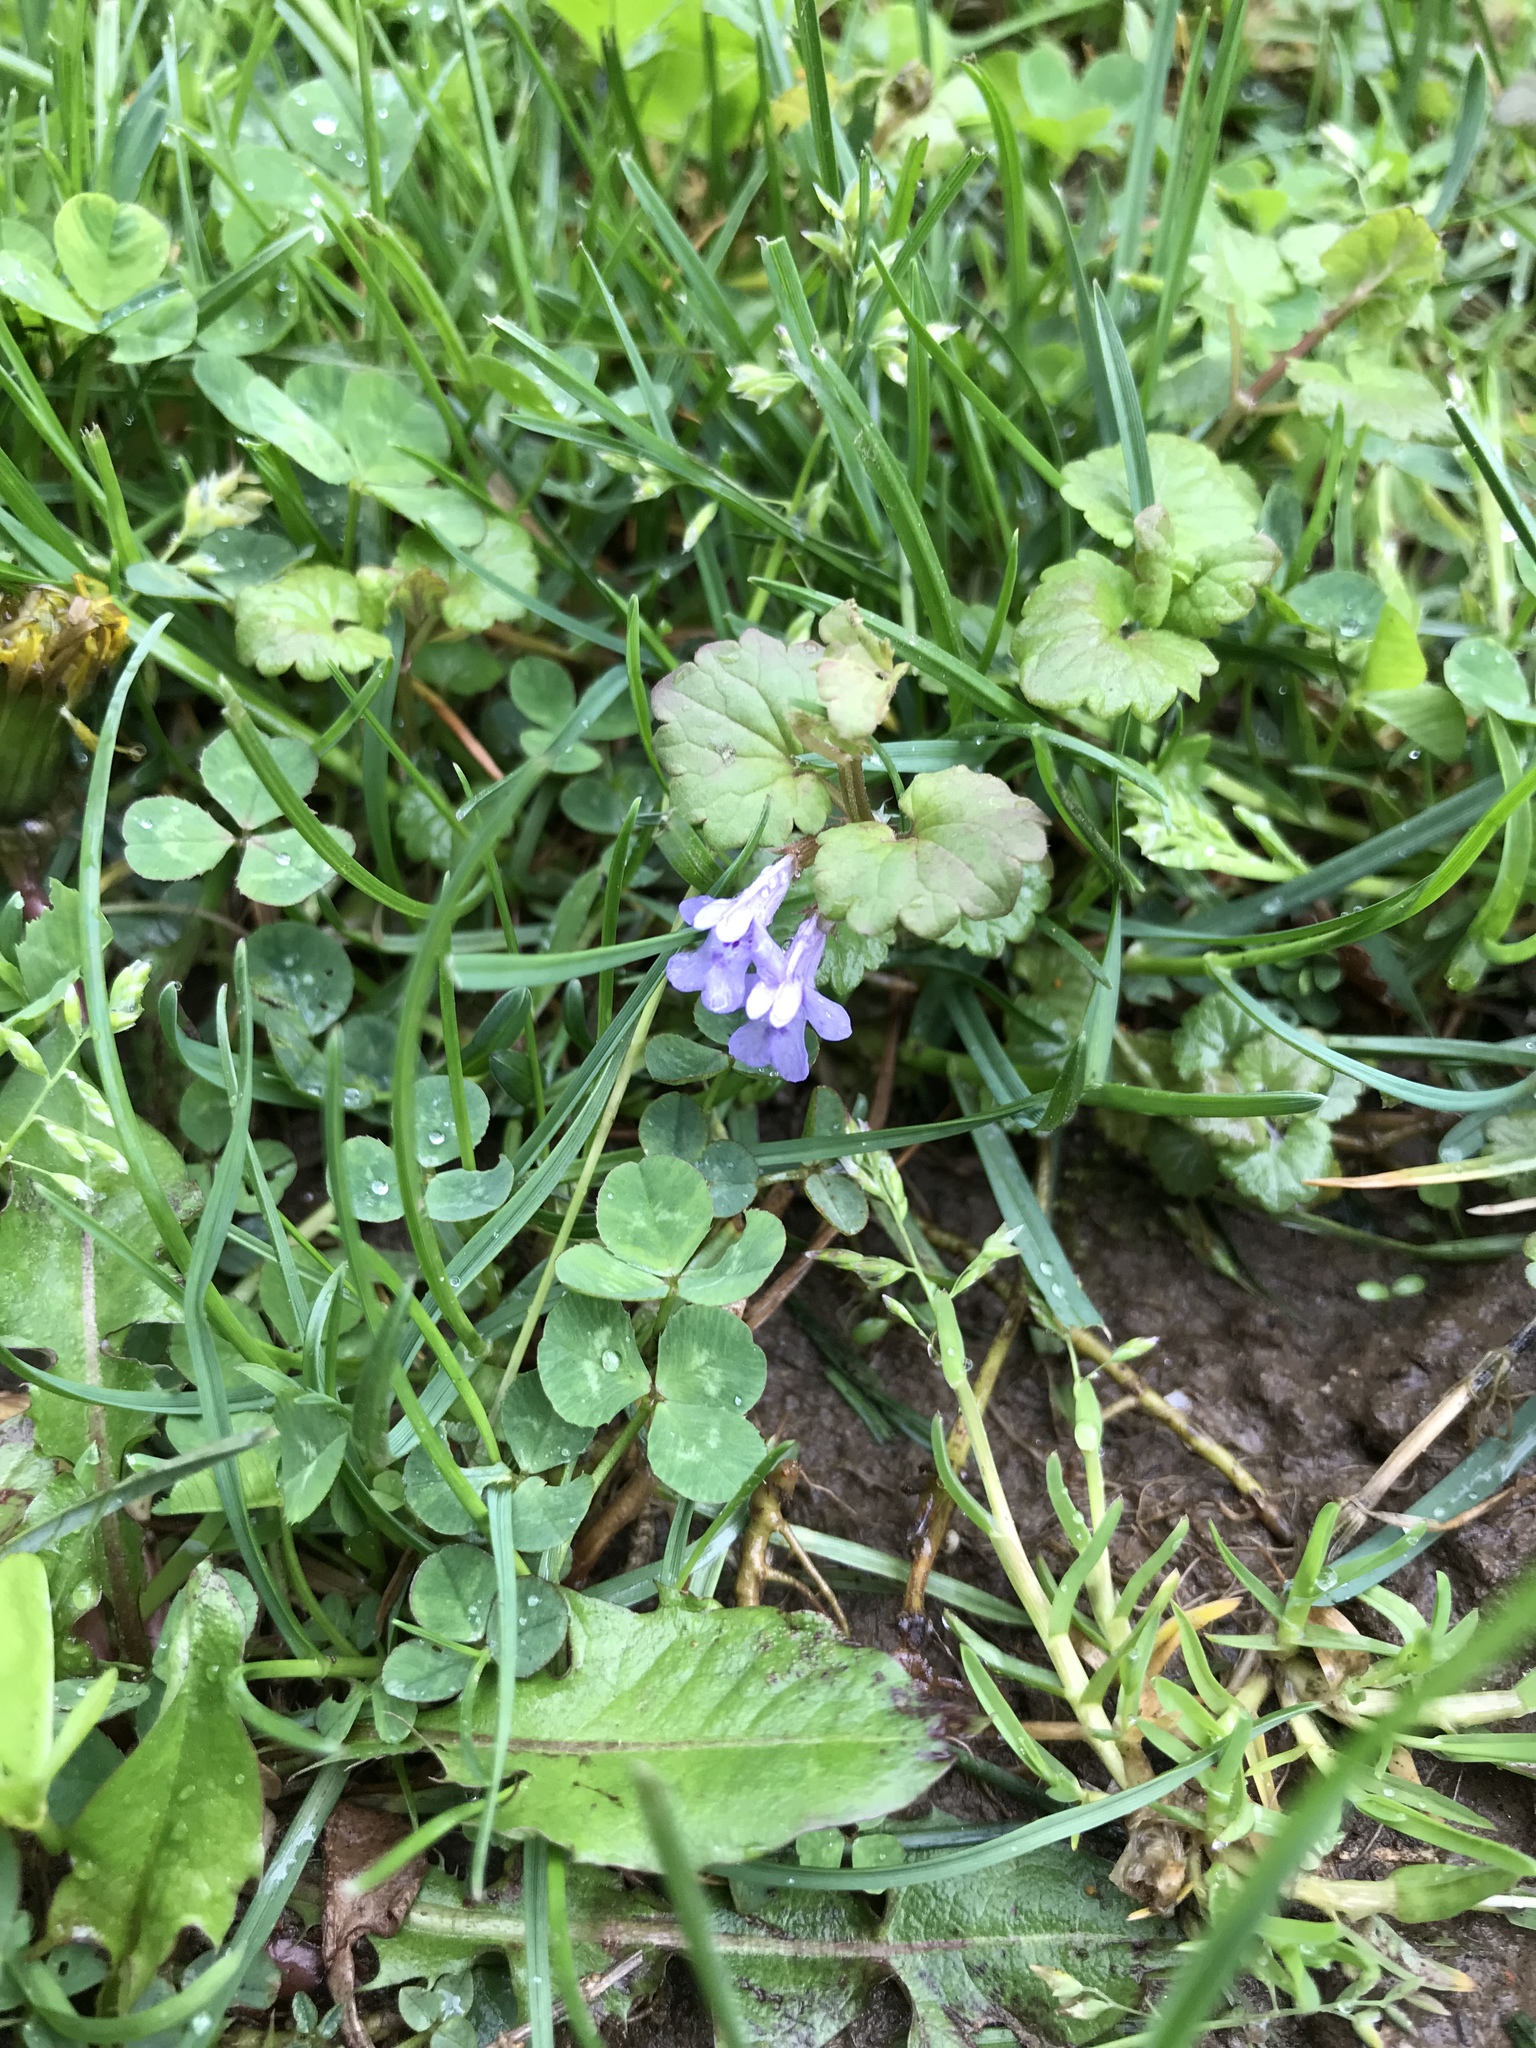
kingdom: Plantae
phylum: Tracheophyta
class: Magnoliopsida
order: Lamiales
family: Lamiaceae
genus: Glechoma
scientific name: Glechoma hederacea
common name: Ground ivy
